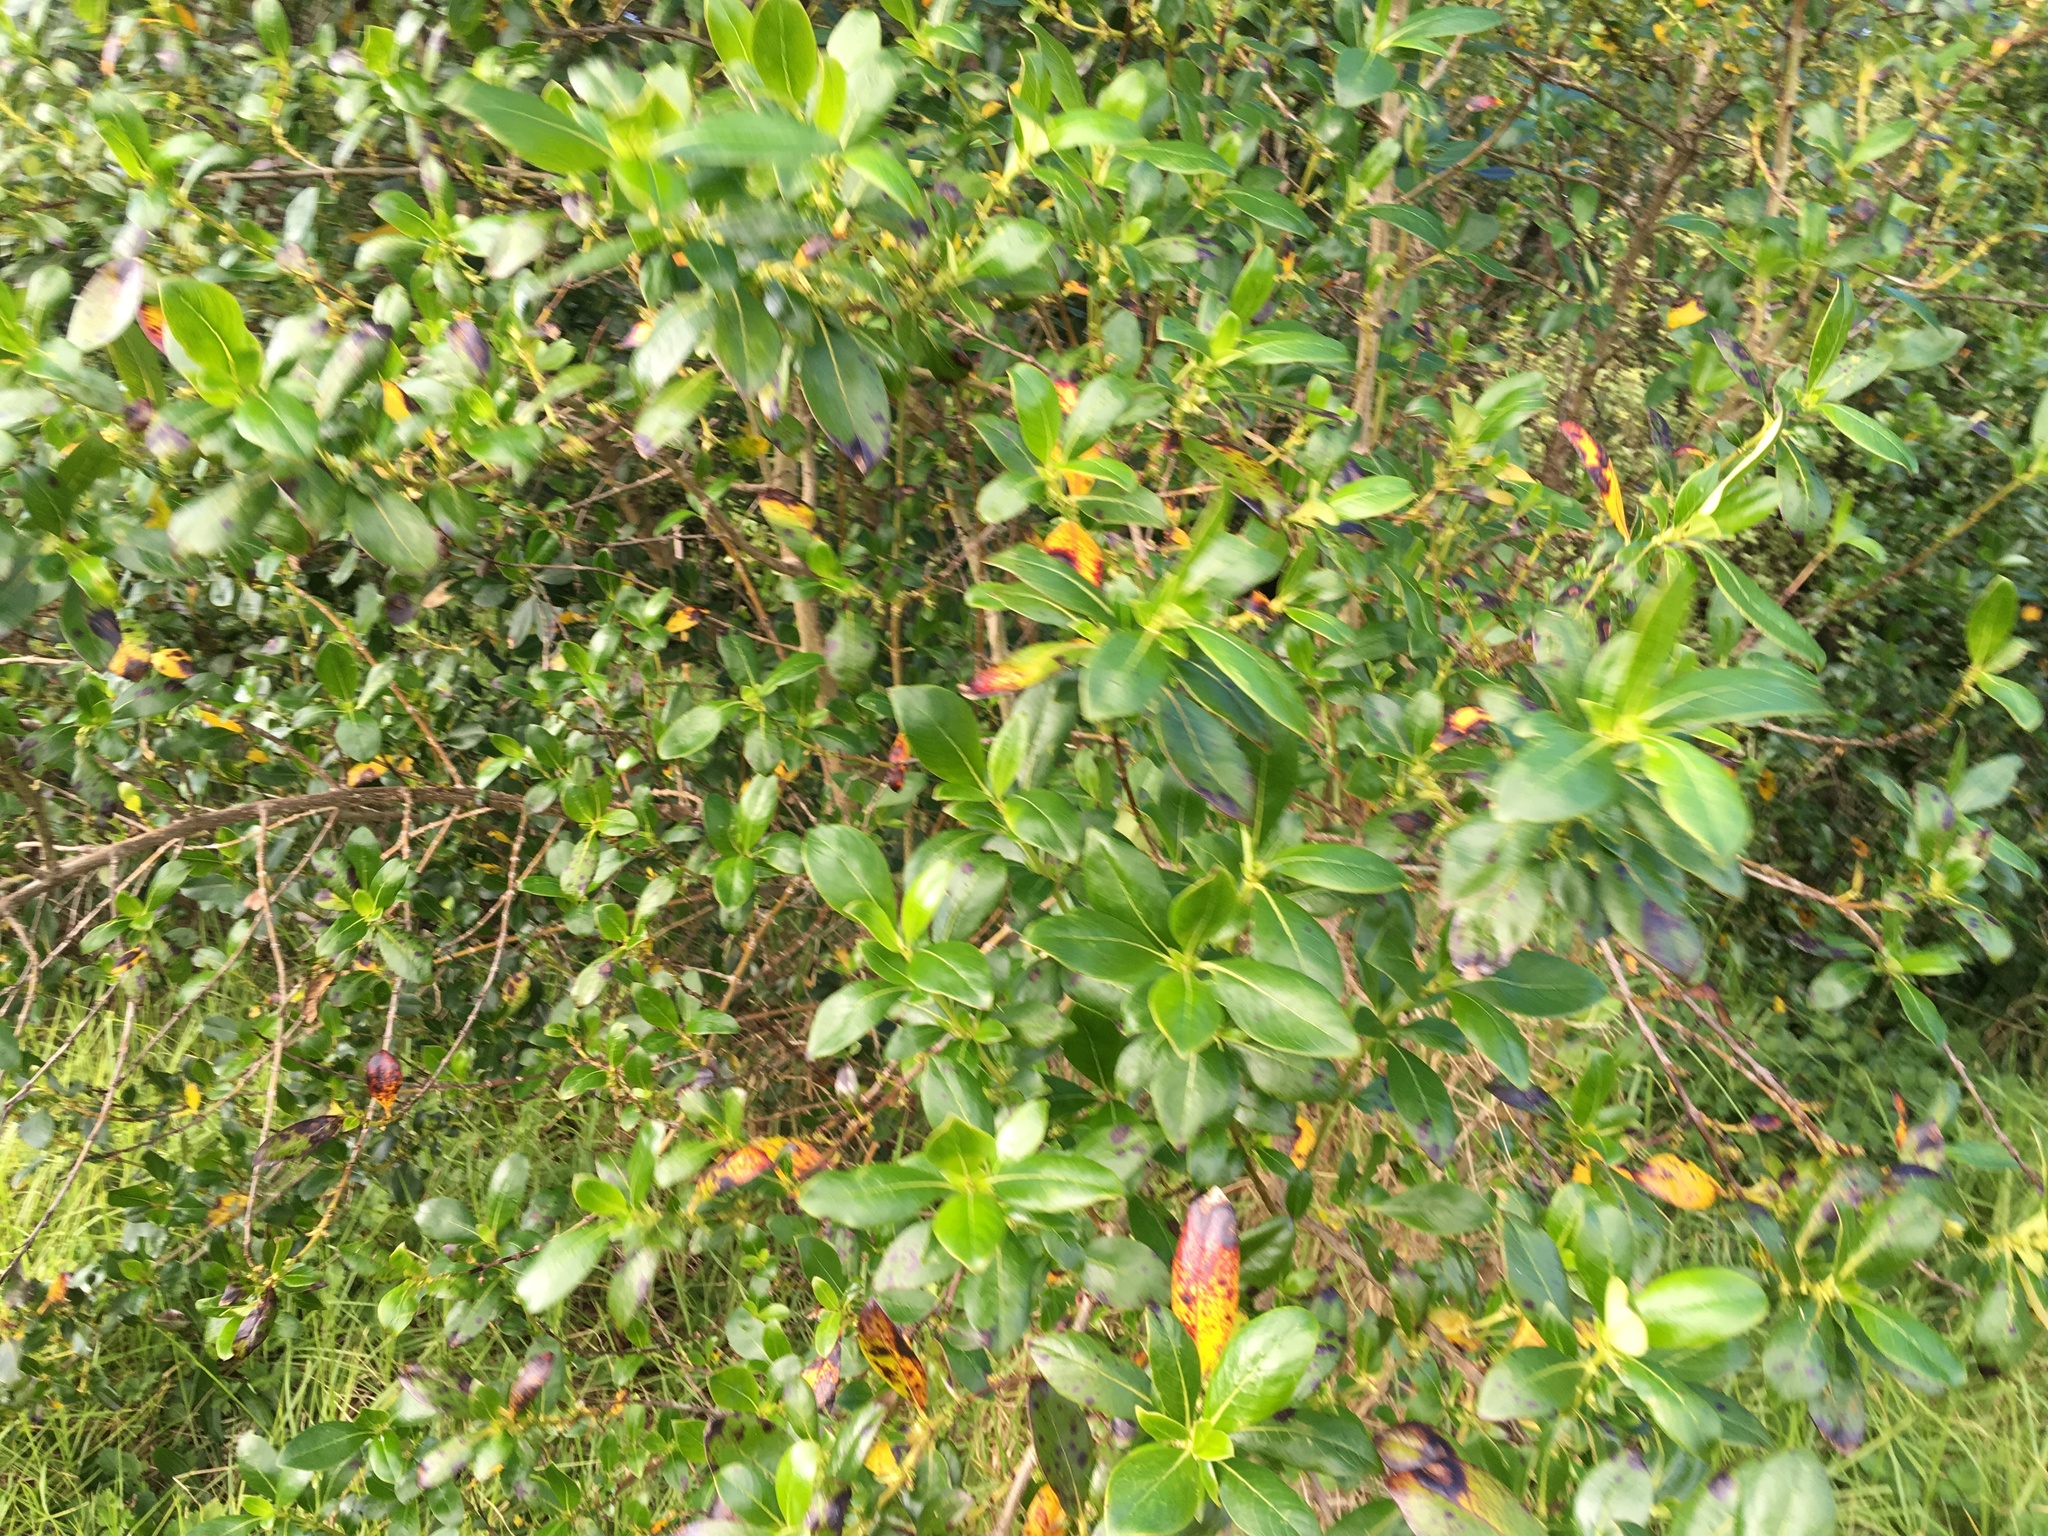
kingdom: Plantae
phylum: Tracheophyta
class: Magnoliopsida
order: Gentianales
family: Rubiaceae
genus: Coprosma
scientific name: Coprosma robusta
